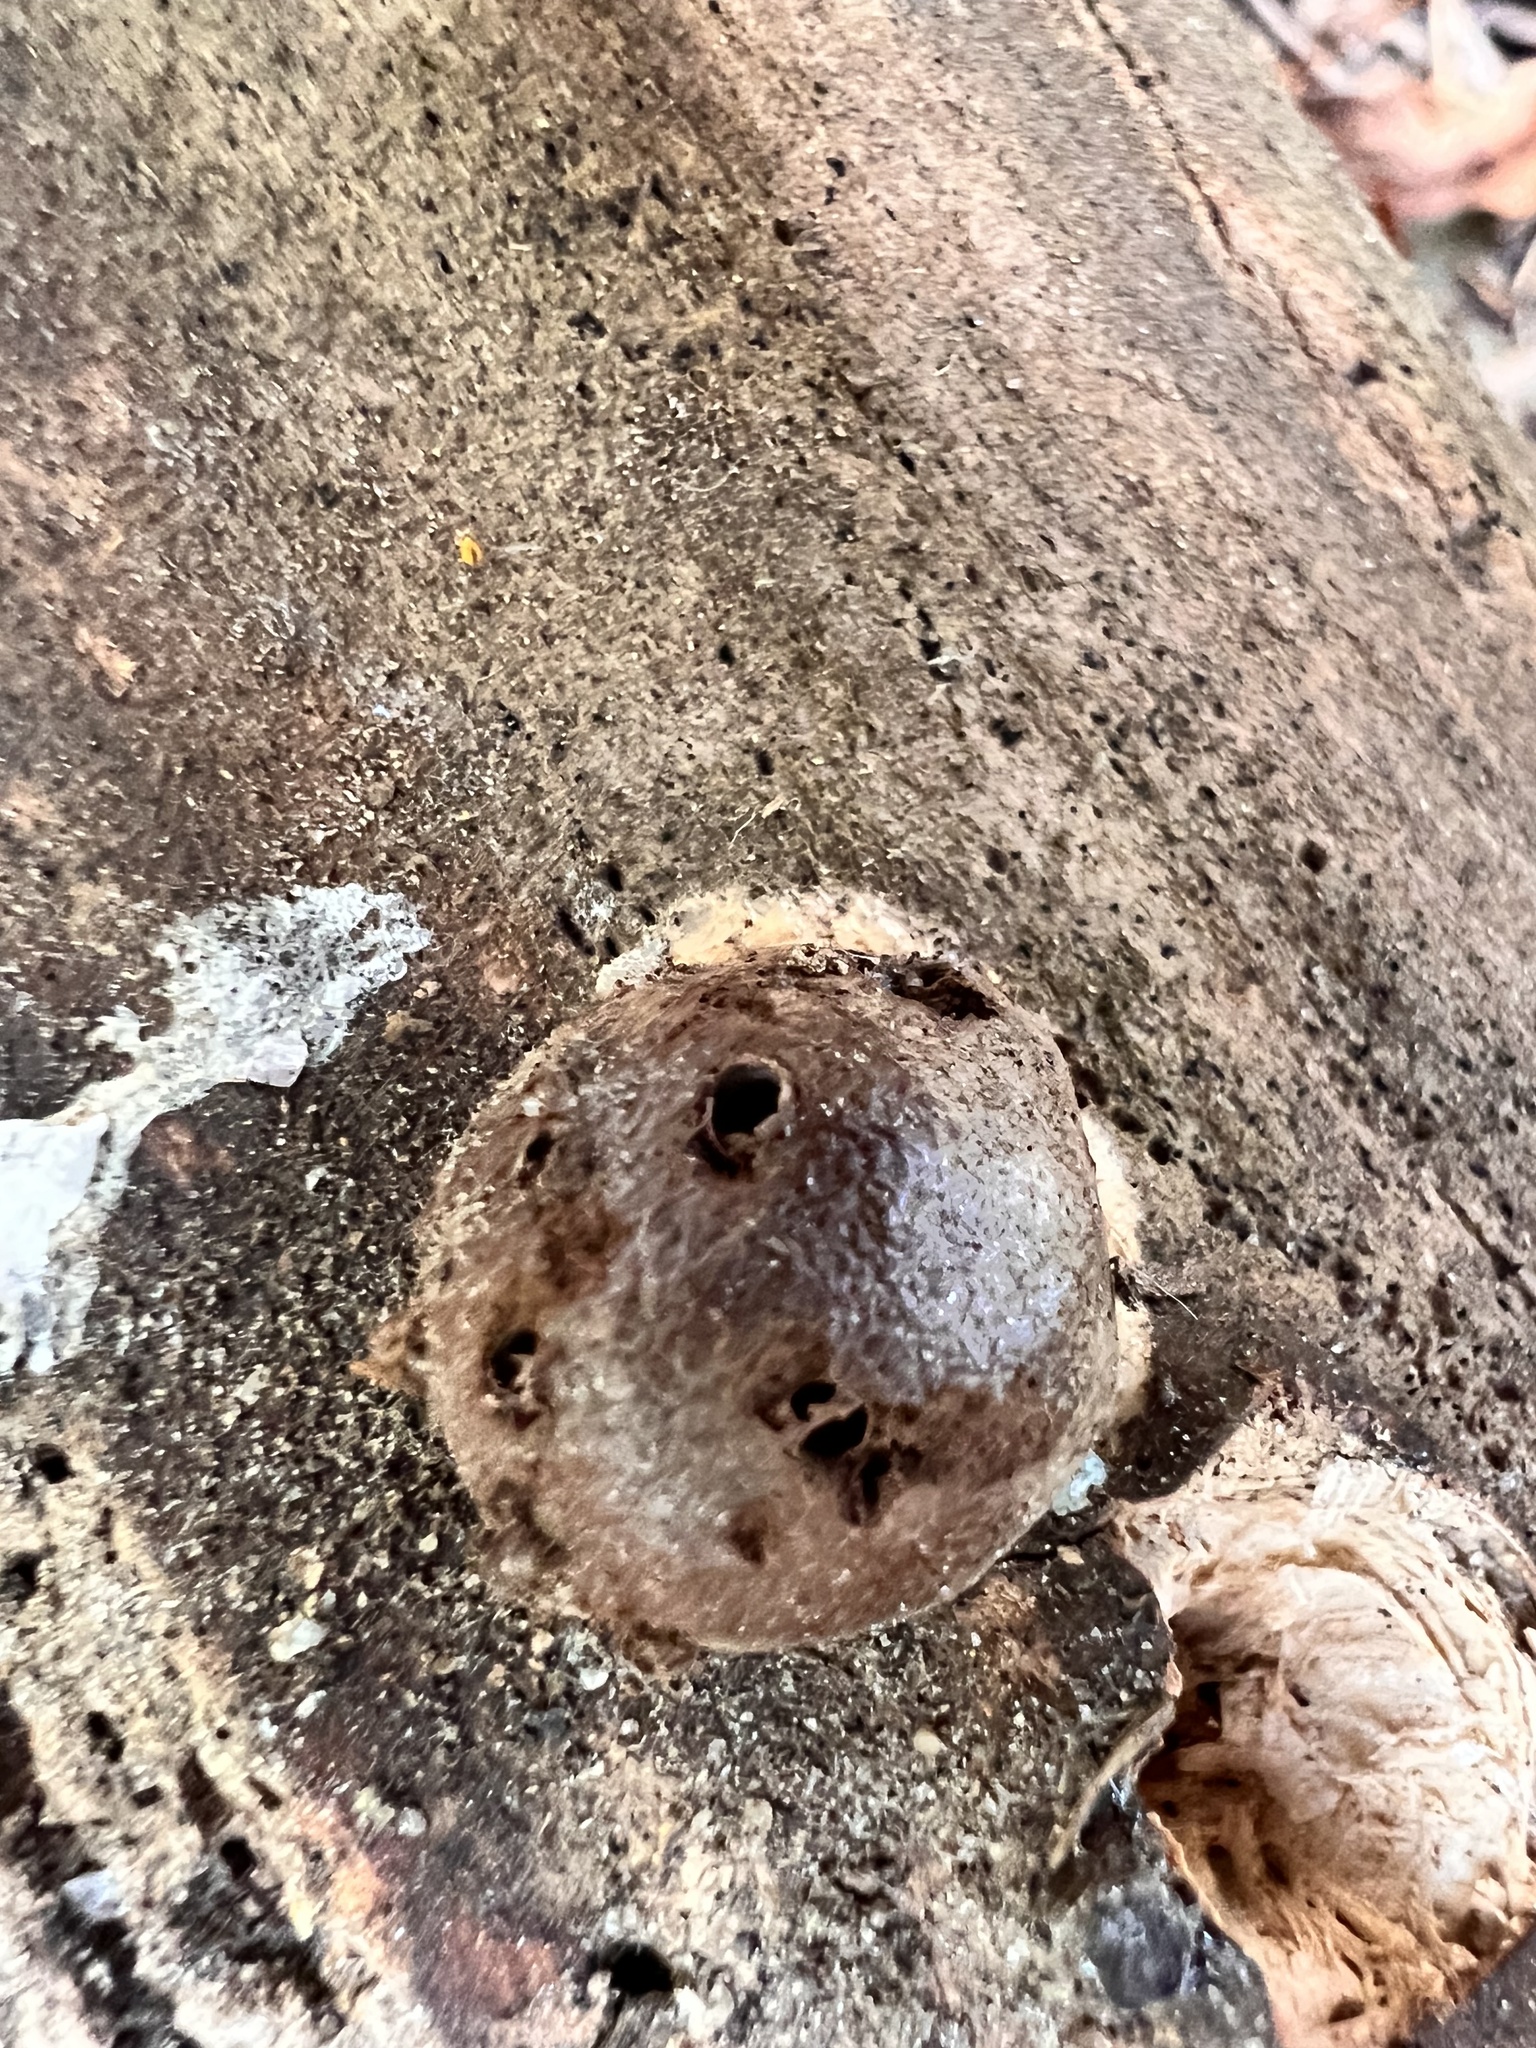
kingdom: Protozoa
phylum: Mycetozoa
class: Myxomycetes
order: Cribrariales
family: Tubiferaceae
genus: Reticularia
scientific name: Reticularia splendens
